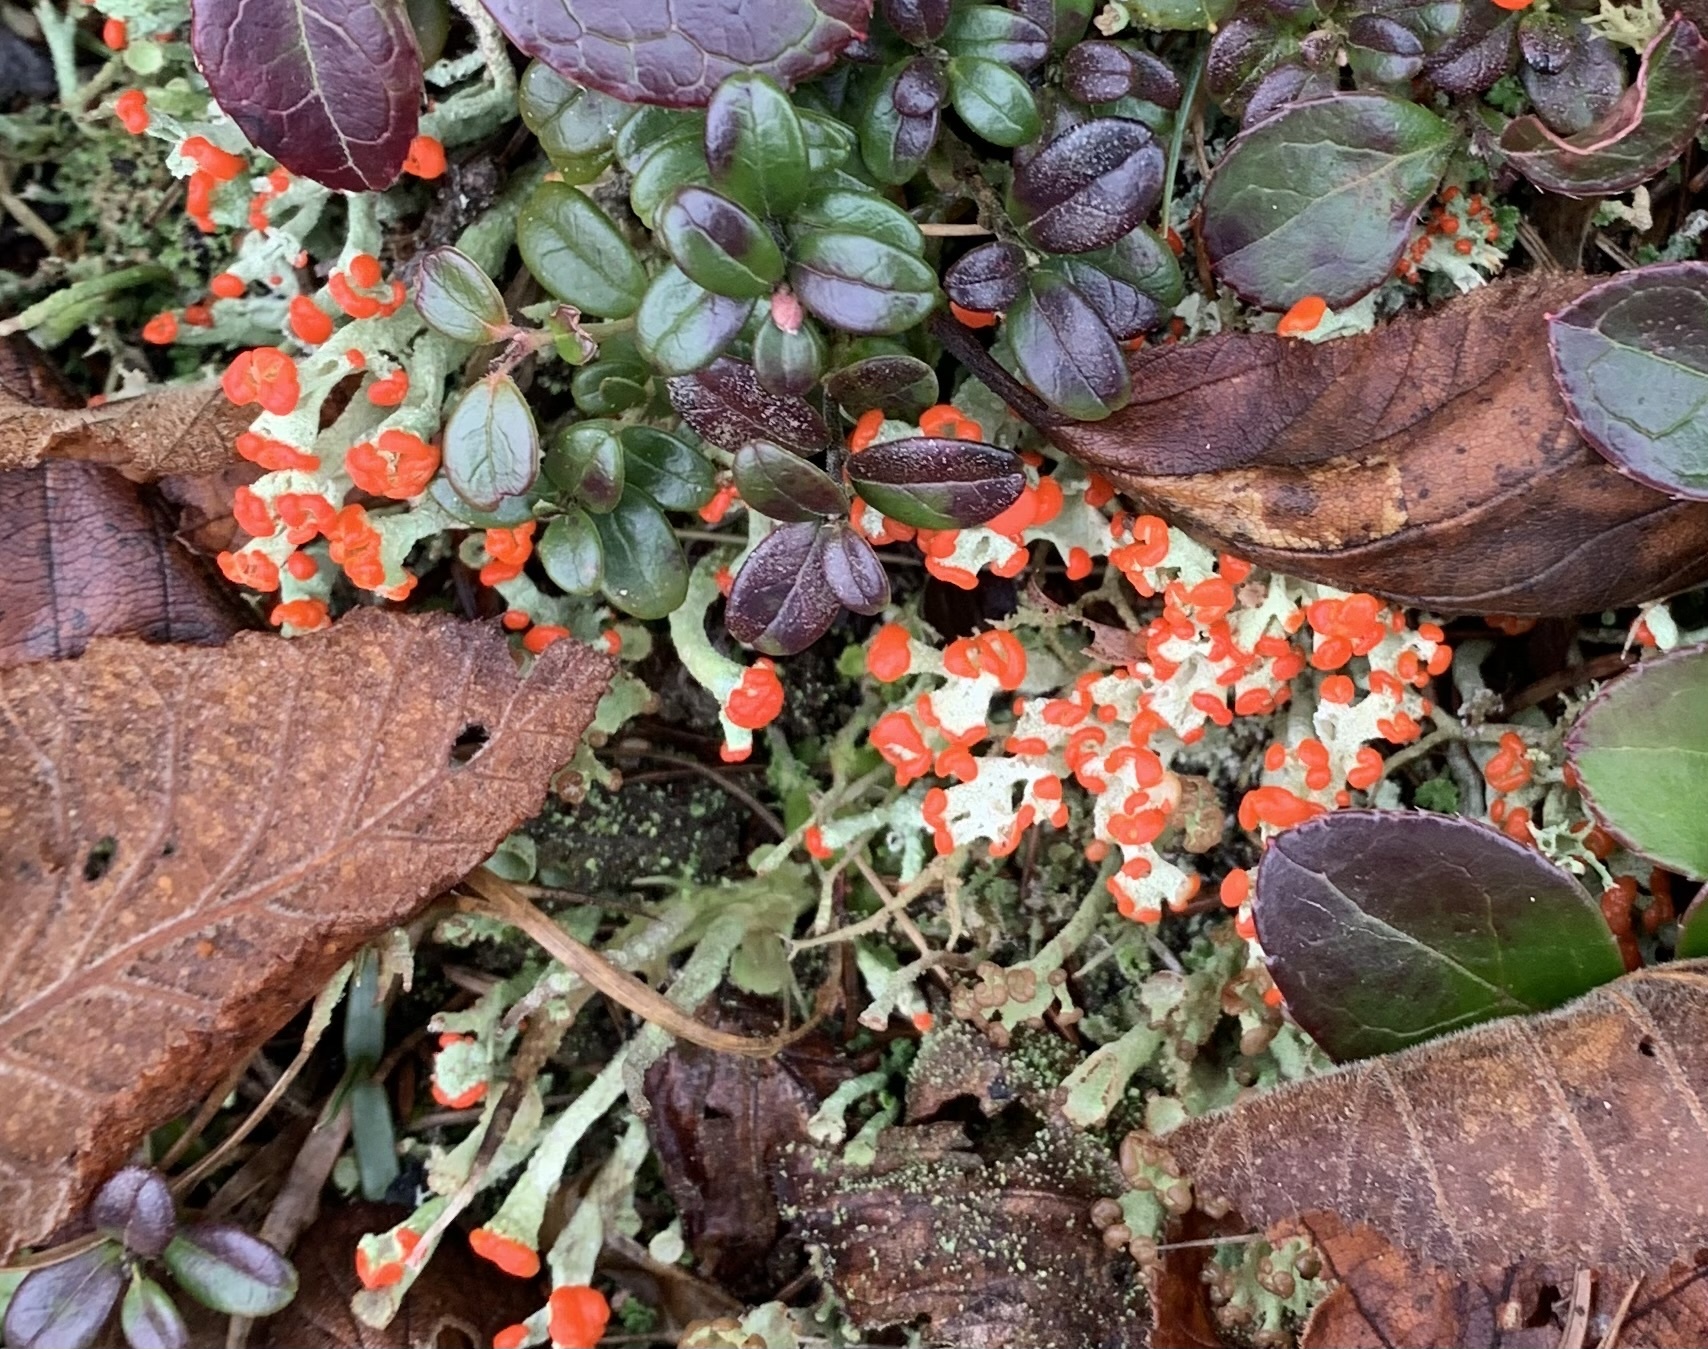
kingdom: Fungi
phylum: Ascomycota
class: Lecanoromycetes
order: Lecanorales
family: Cladoniaceae
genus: Cladonia
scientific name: Cladonia cristatella
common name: British soldier lichen
